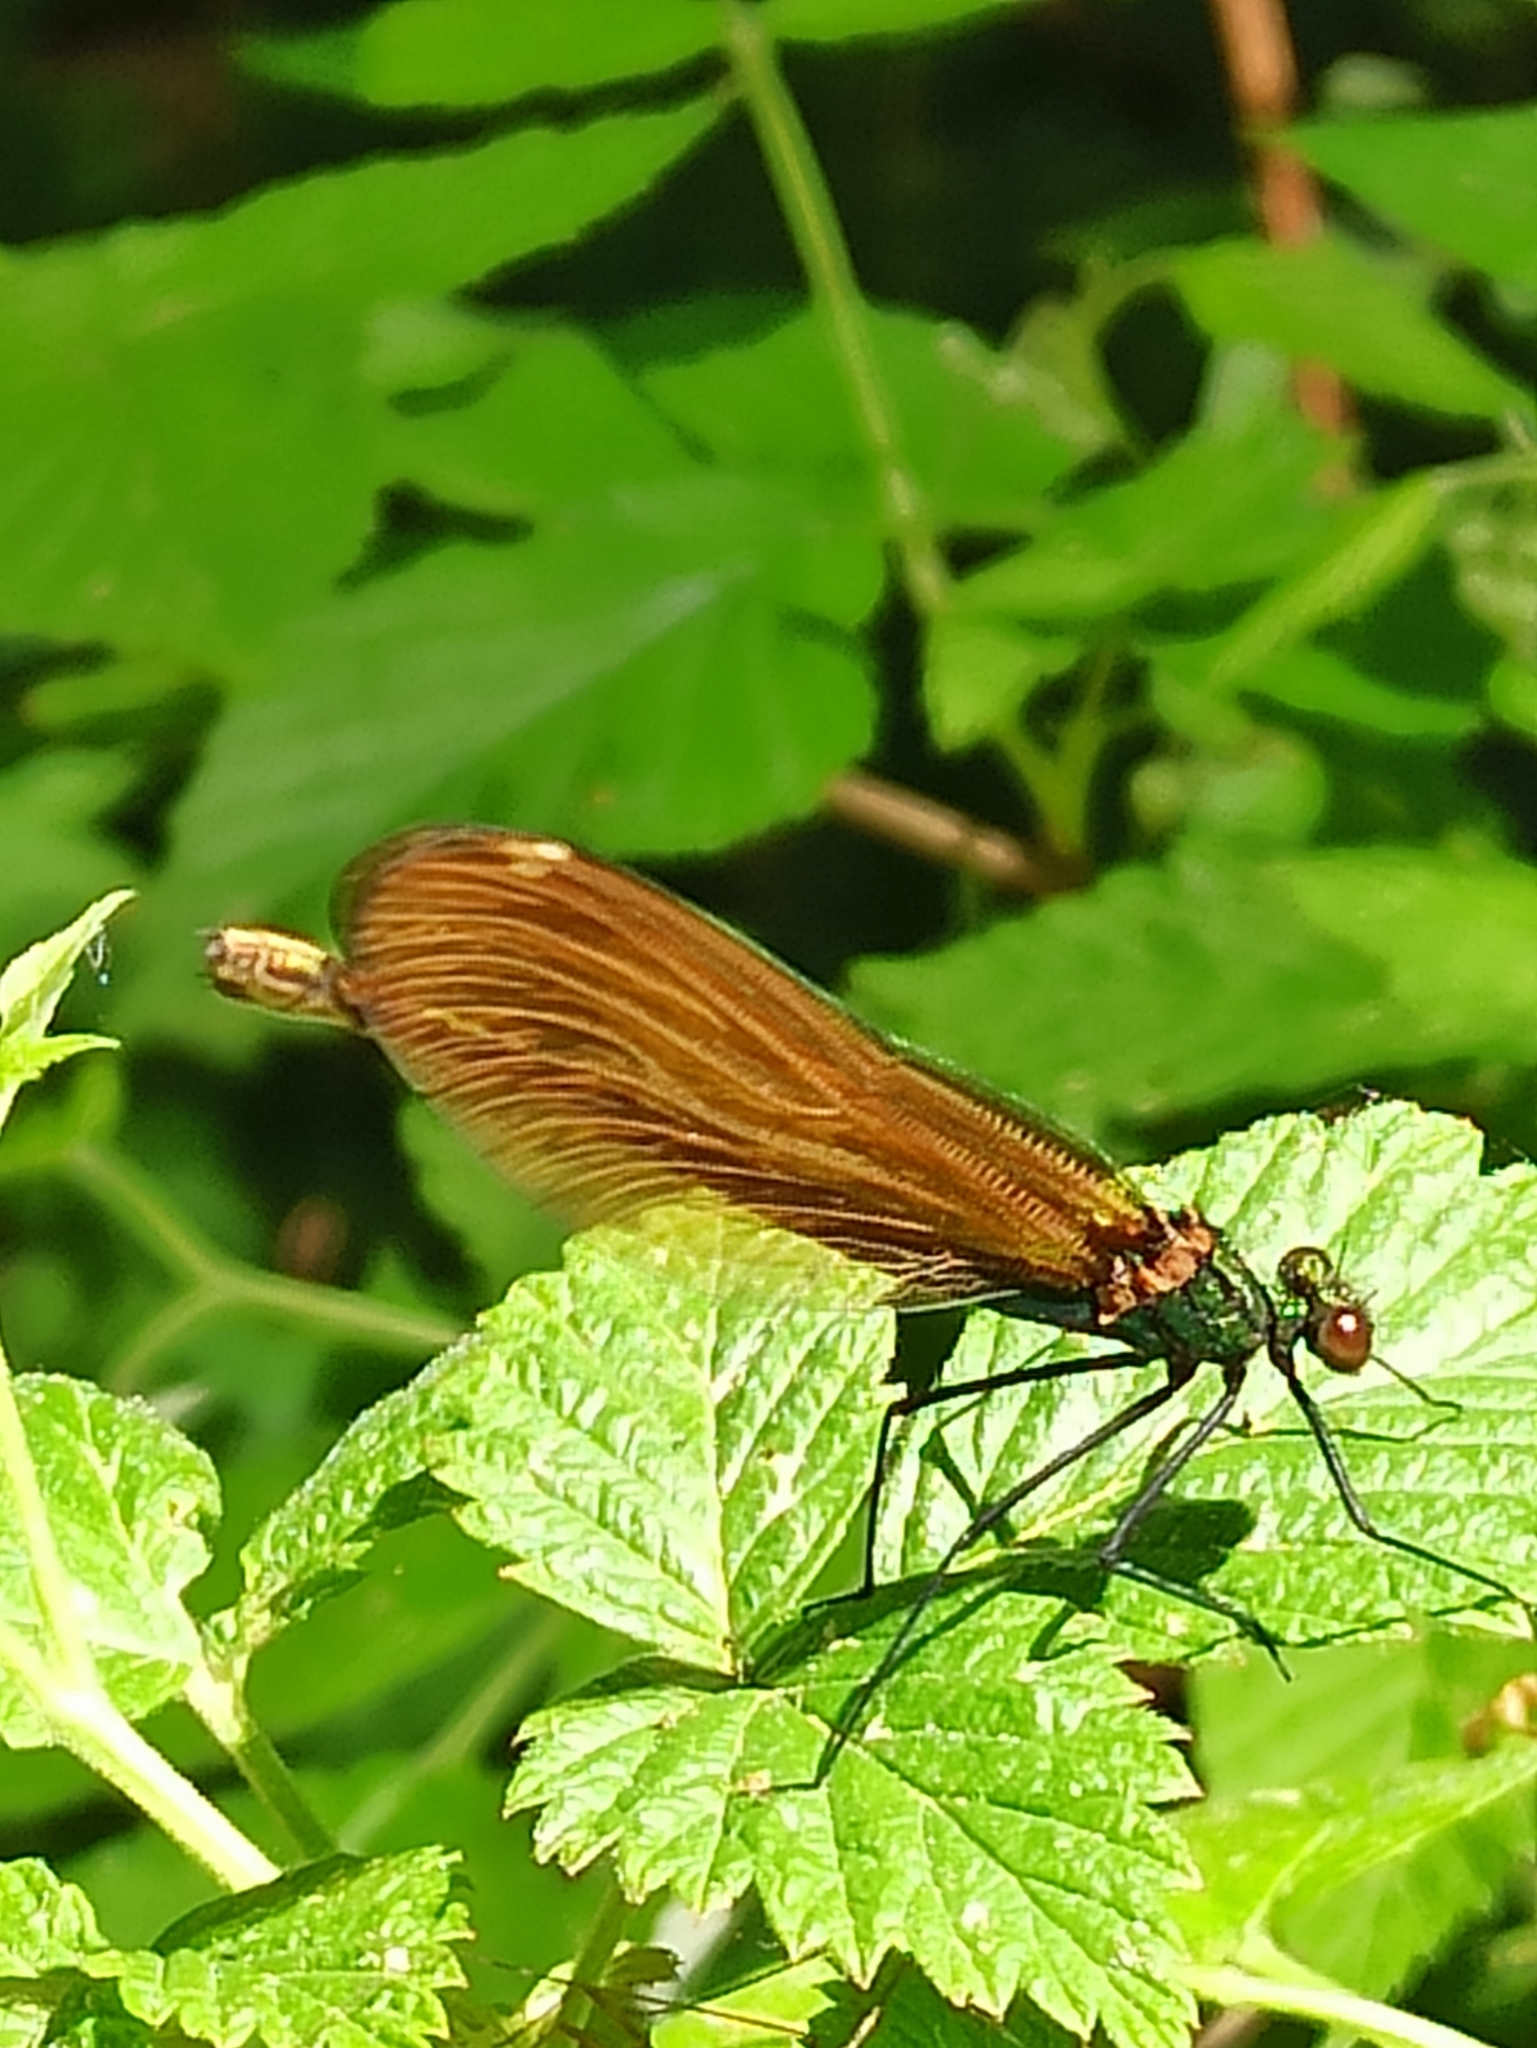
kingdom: Animalia
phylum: Arthropoda
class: Insecta
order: Odonata
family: Calopterygidae
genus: Calopteryx
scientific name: Calopteryx virgo
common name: Beautiful demoiselle
